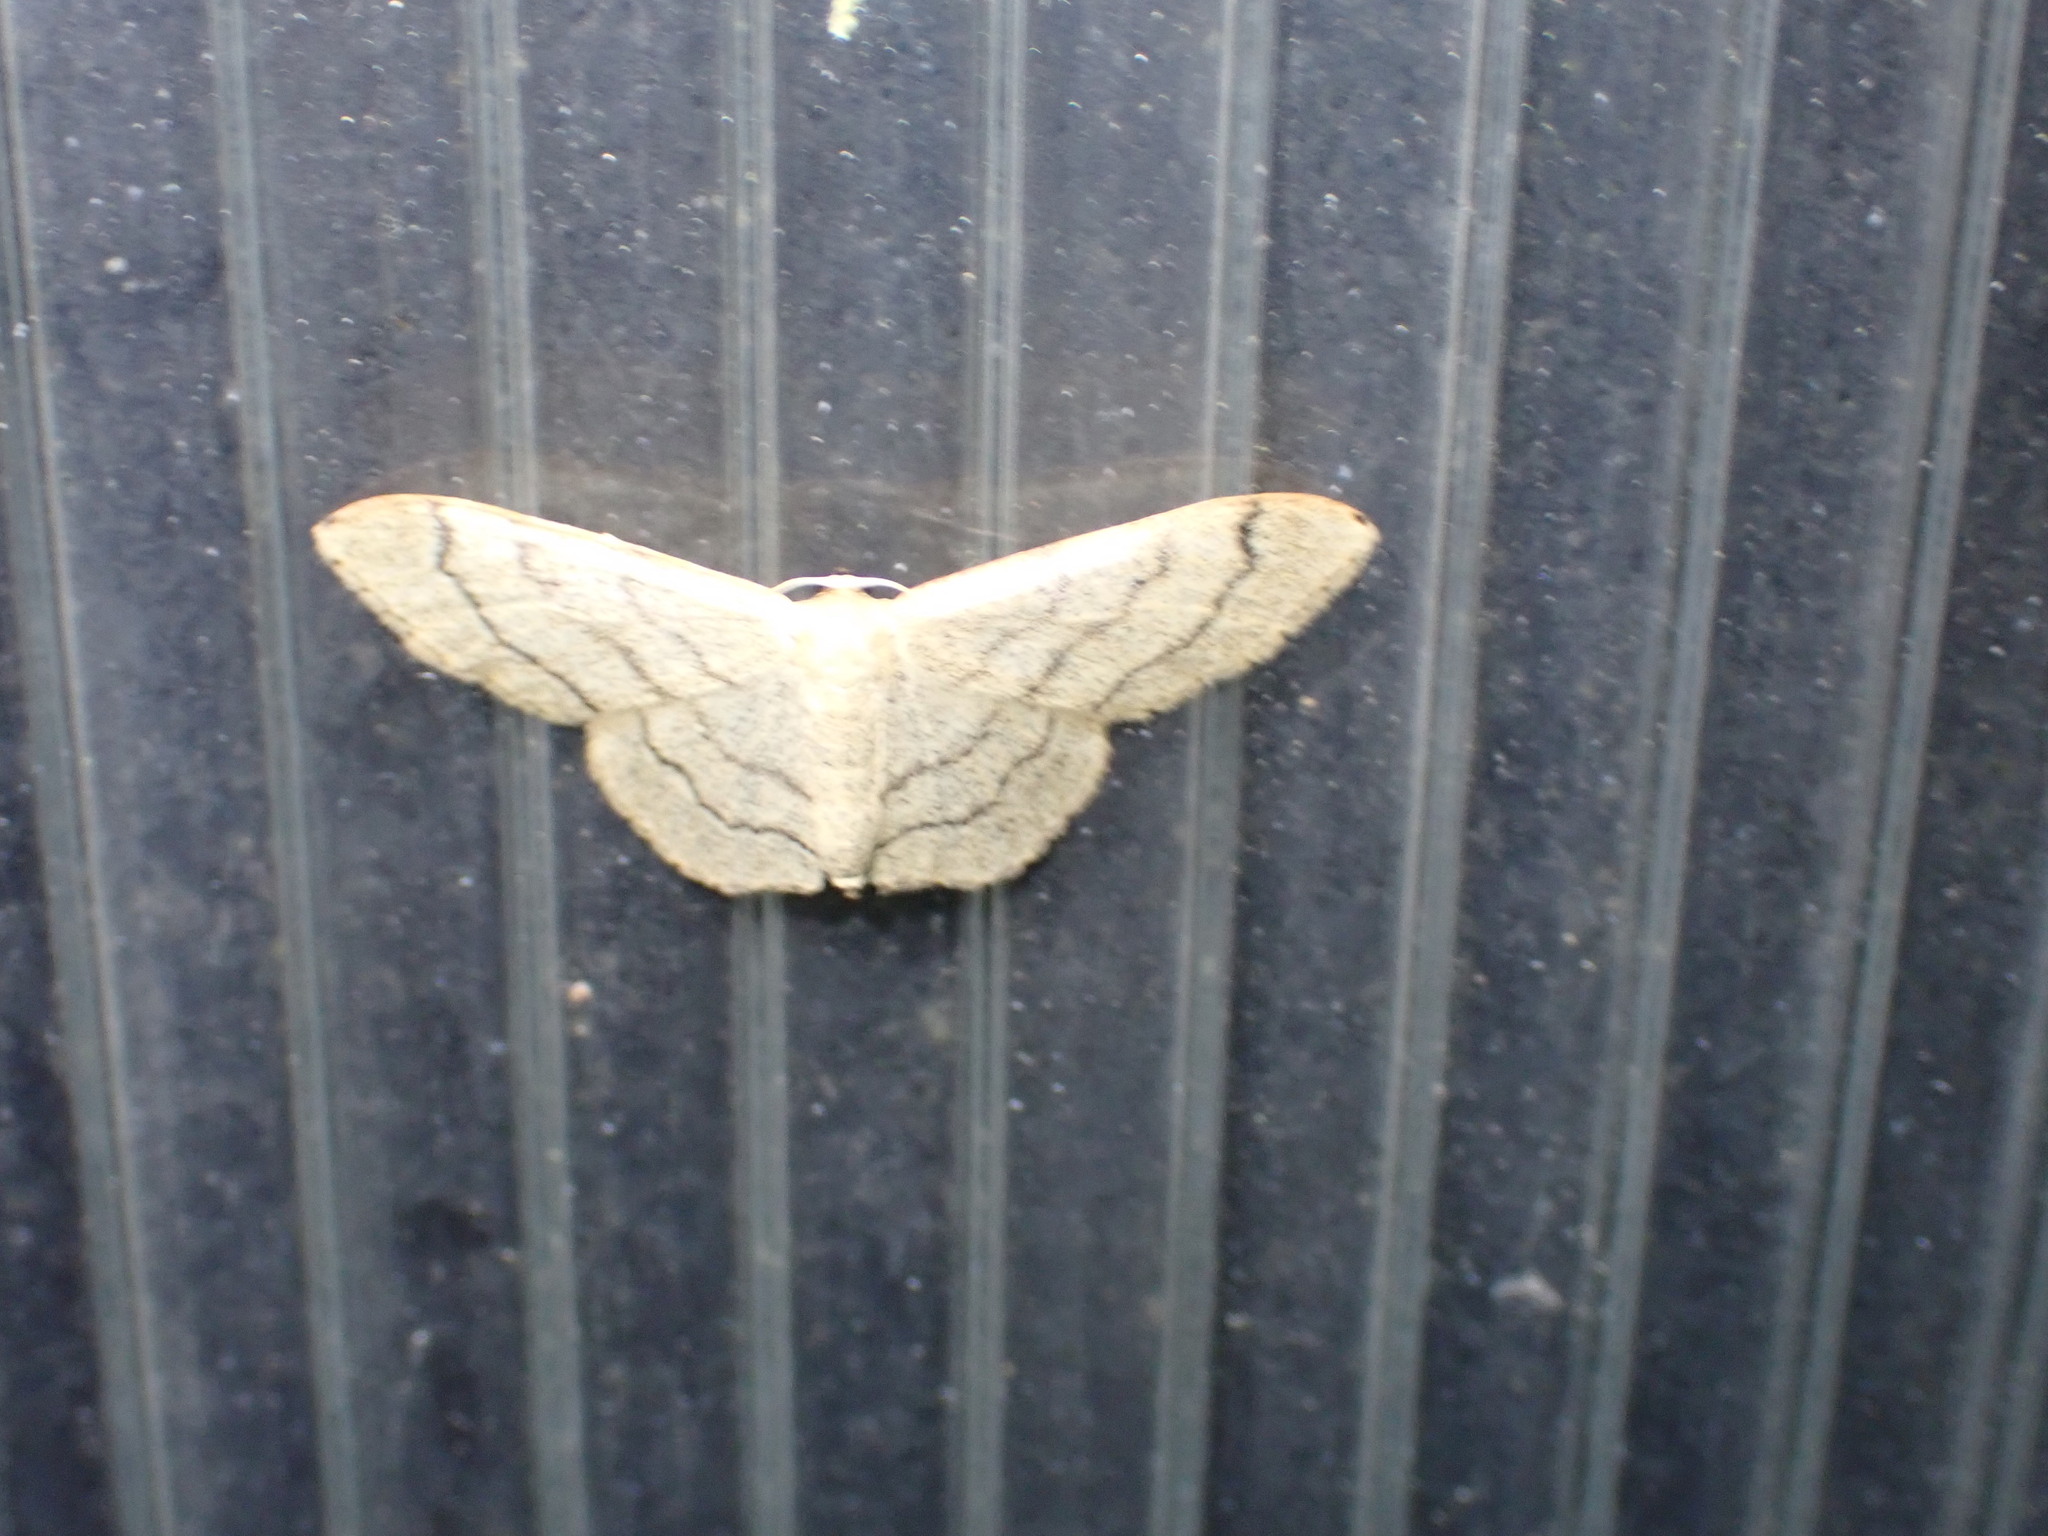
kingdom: Animalia
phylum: Arthropoda
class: Insecta
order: Lepidoptera
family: Geometridae
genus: Idaea
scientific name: Idaea aversata
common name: Riband wave
